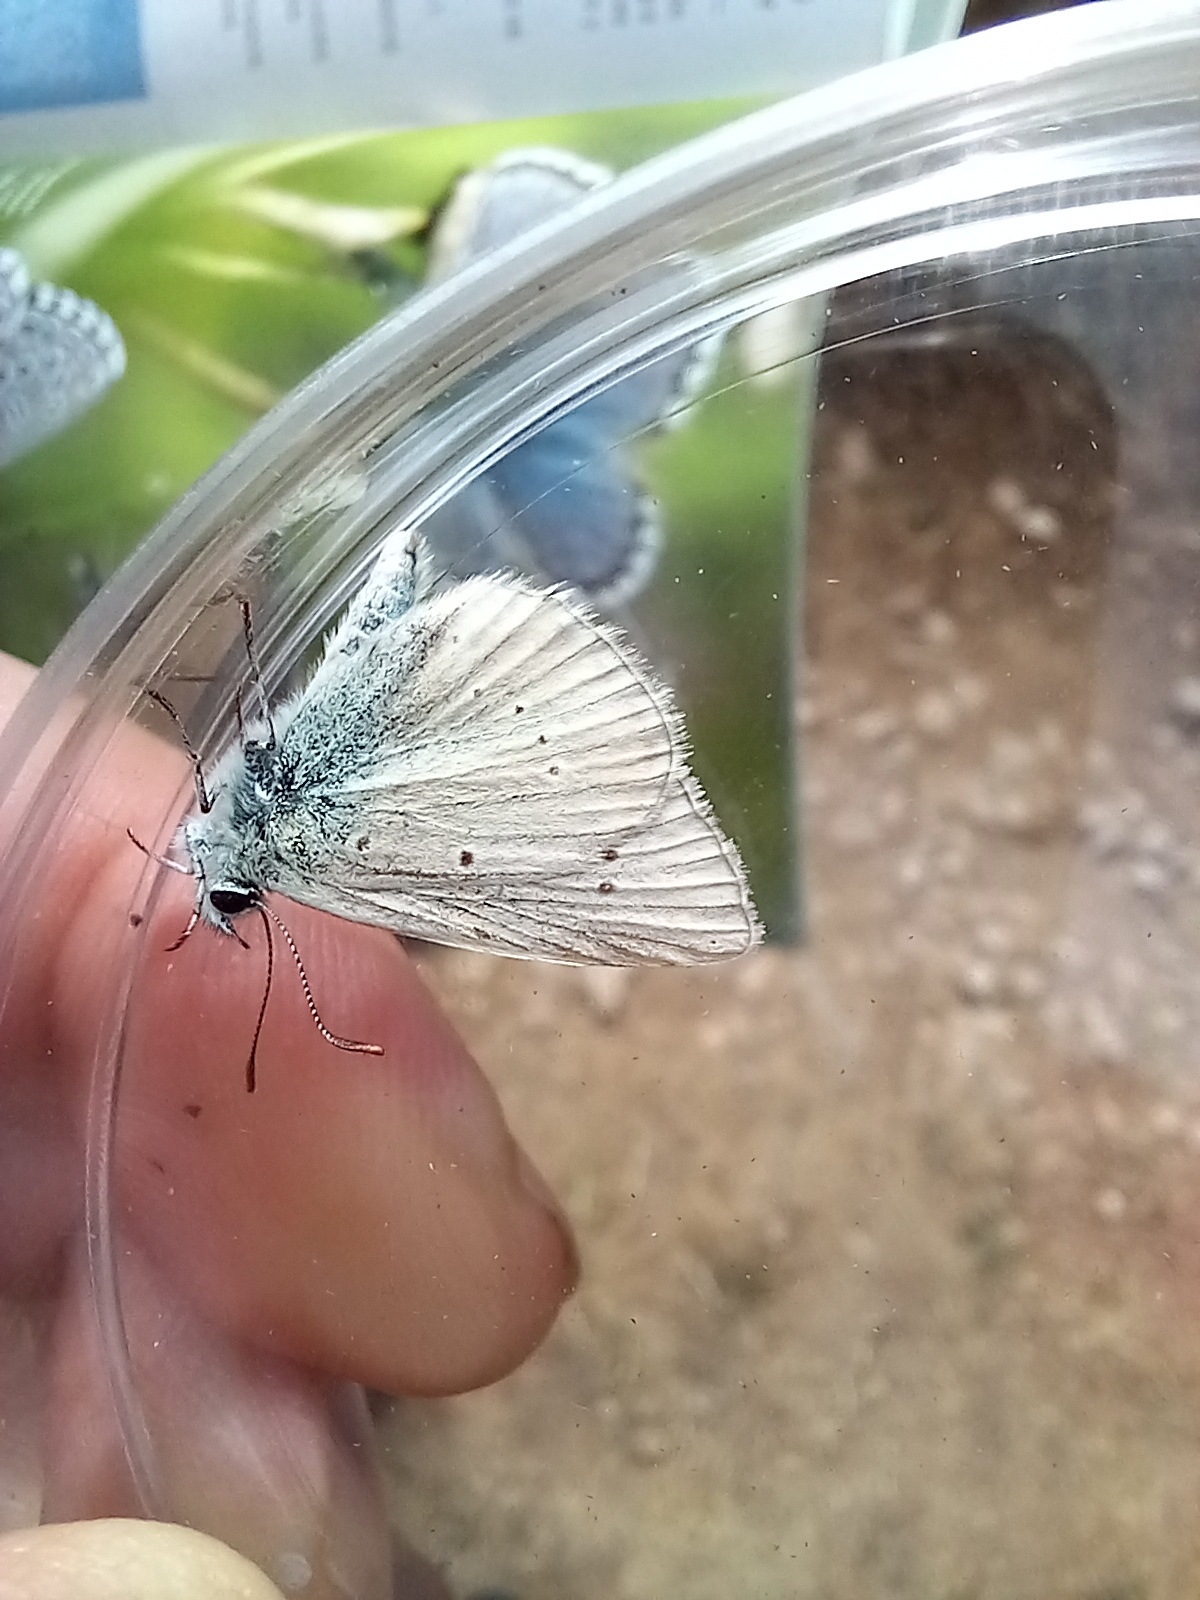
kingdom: Animalia
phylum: Arthropoda
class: Insecta
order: Lepidoptera
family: Lycaenidae
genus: Agrodiaetus
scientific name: Agrodiaetus dolus
